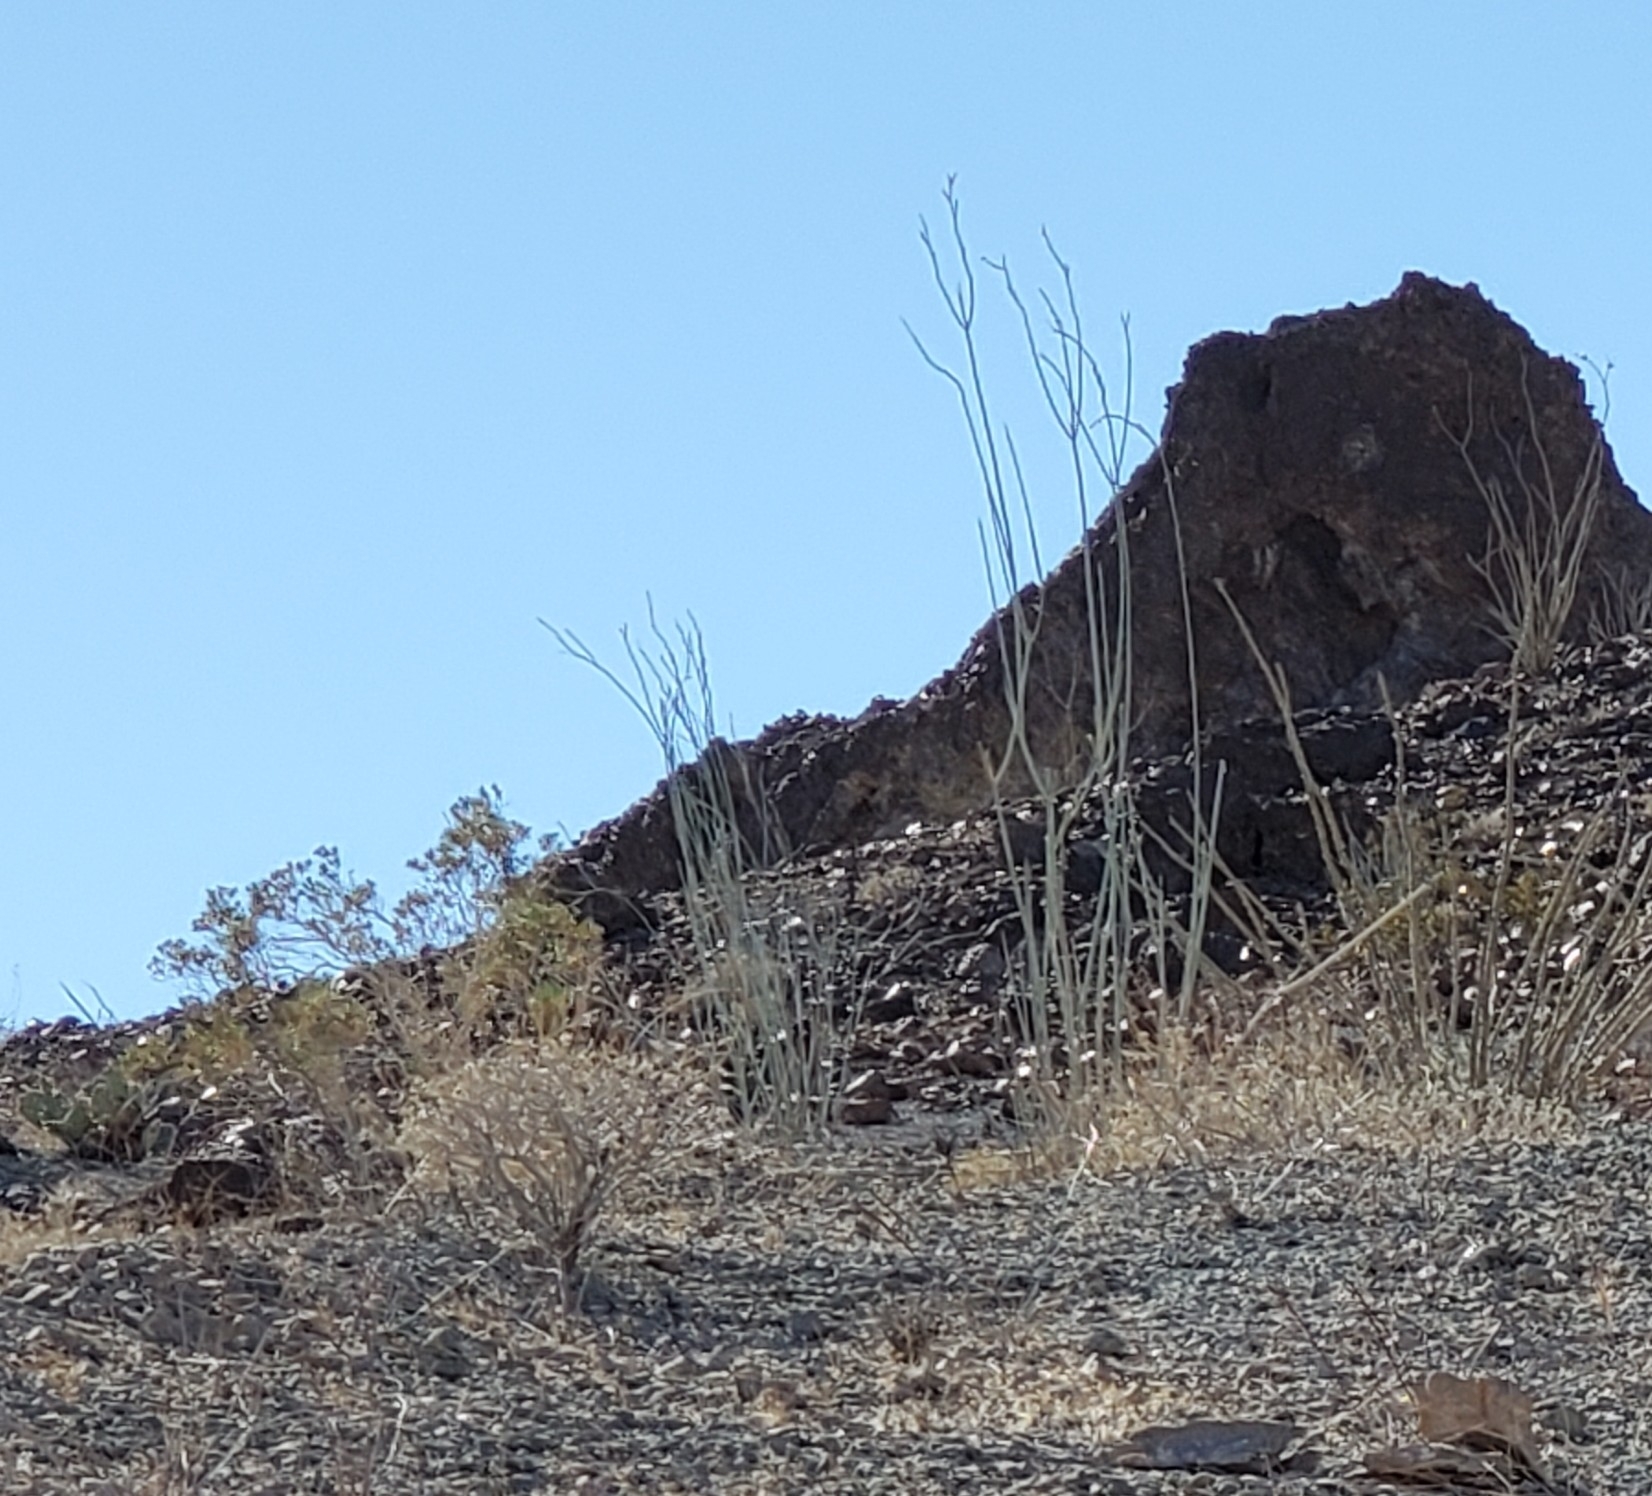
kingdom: Plantae
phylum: Tracheophyta
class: Magnoliopsida
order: Gentianales
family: Apocynaceae
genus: Asclepias
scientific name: Asclepias albicans
